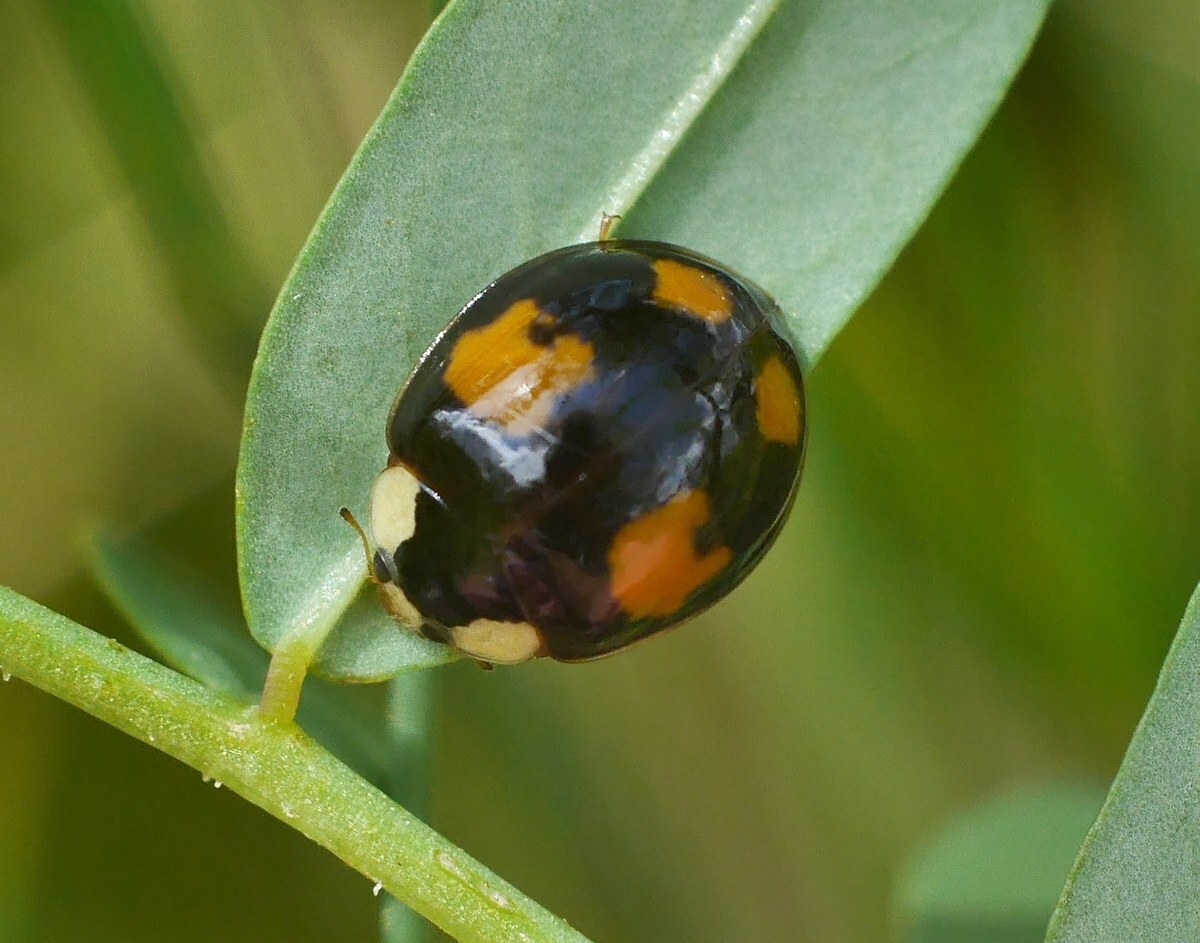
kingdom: Animalia
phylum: Arthropoda
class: Insecta
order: Coleoptera
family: Coccinellidae
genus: Harmonia
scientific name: Harmonia axyridis
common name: Harlequin ladybird
